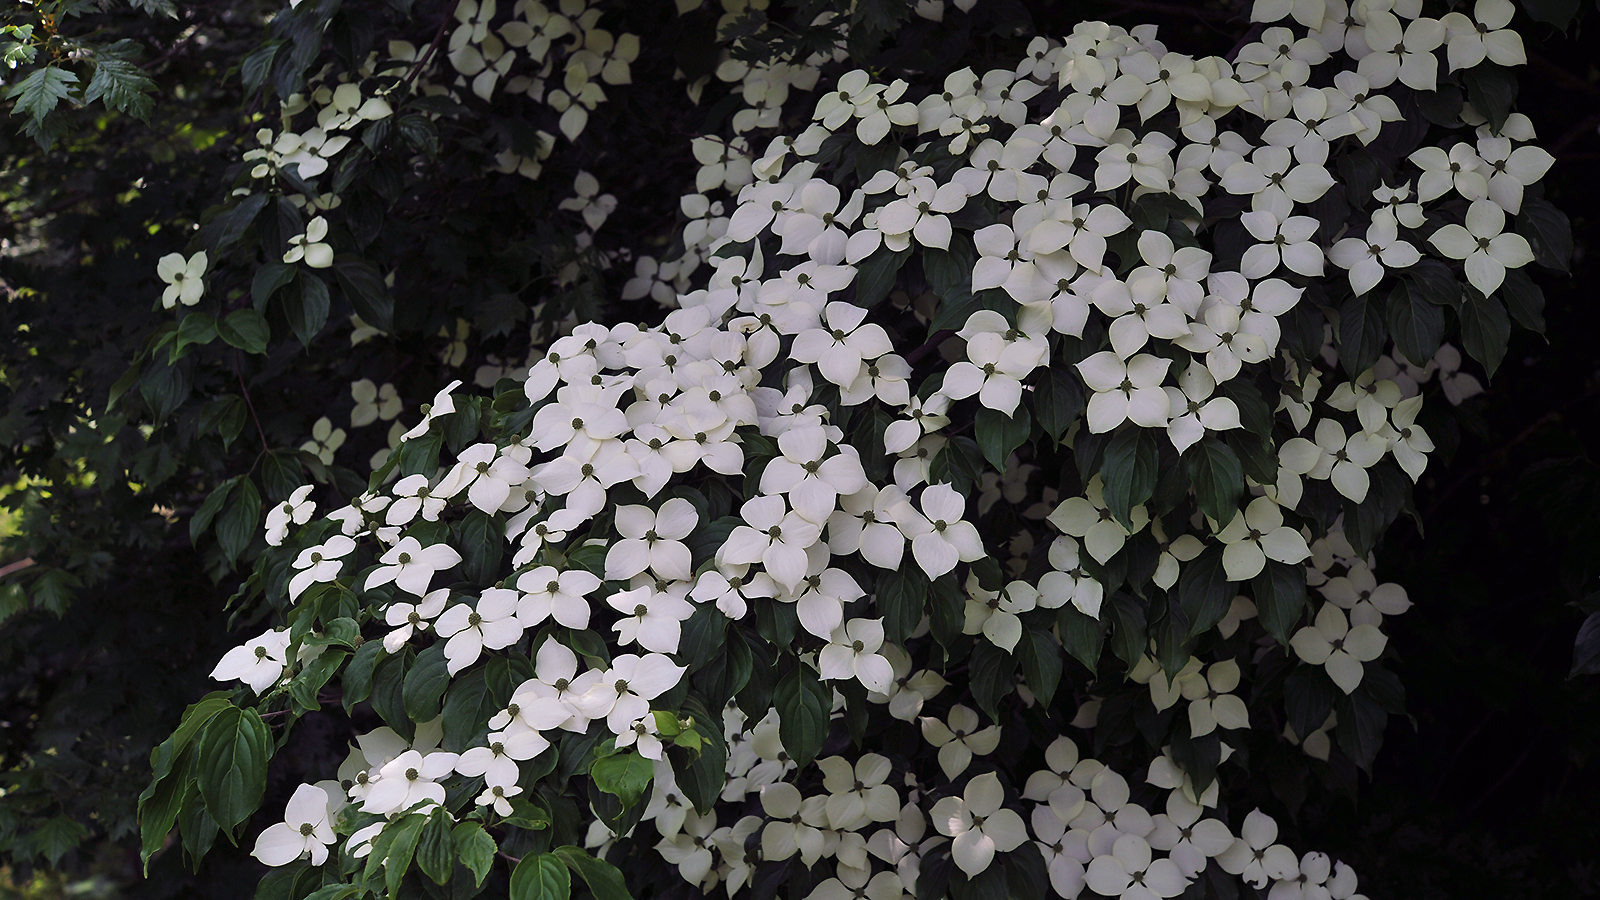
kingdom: Plantae
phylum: Tracheophyta
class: Magnoliopsida
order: Cornales
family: Cornaceae
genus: Cornus
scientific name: Cornus kousa
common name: Japanese dogwood
